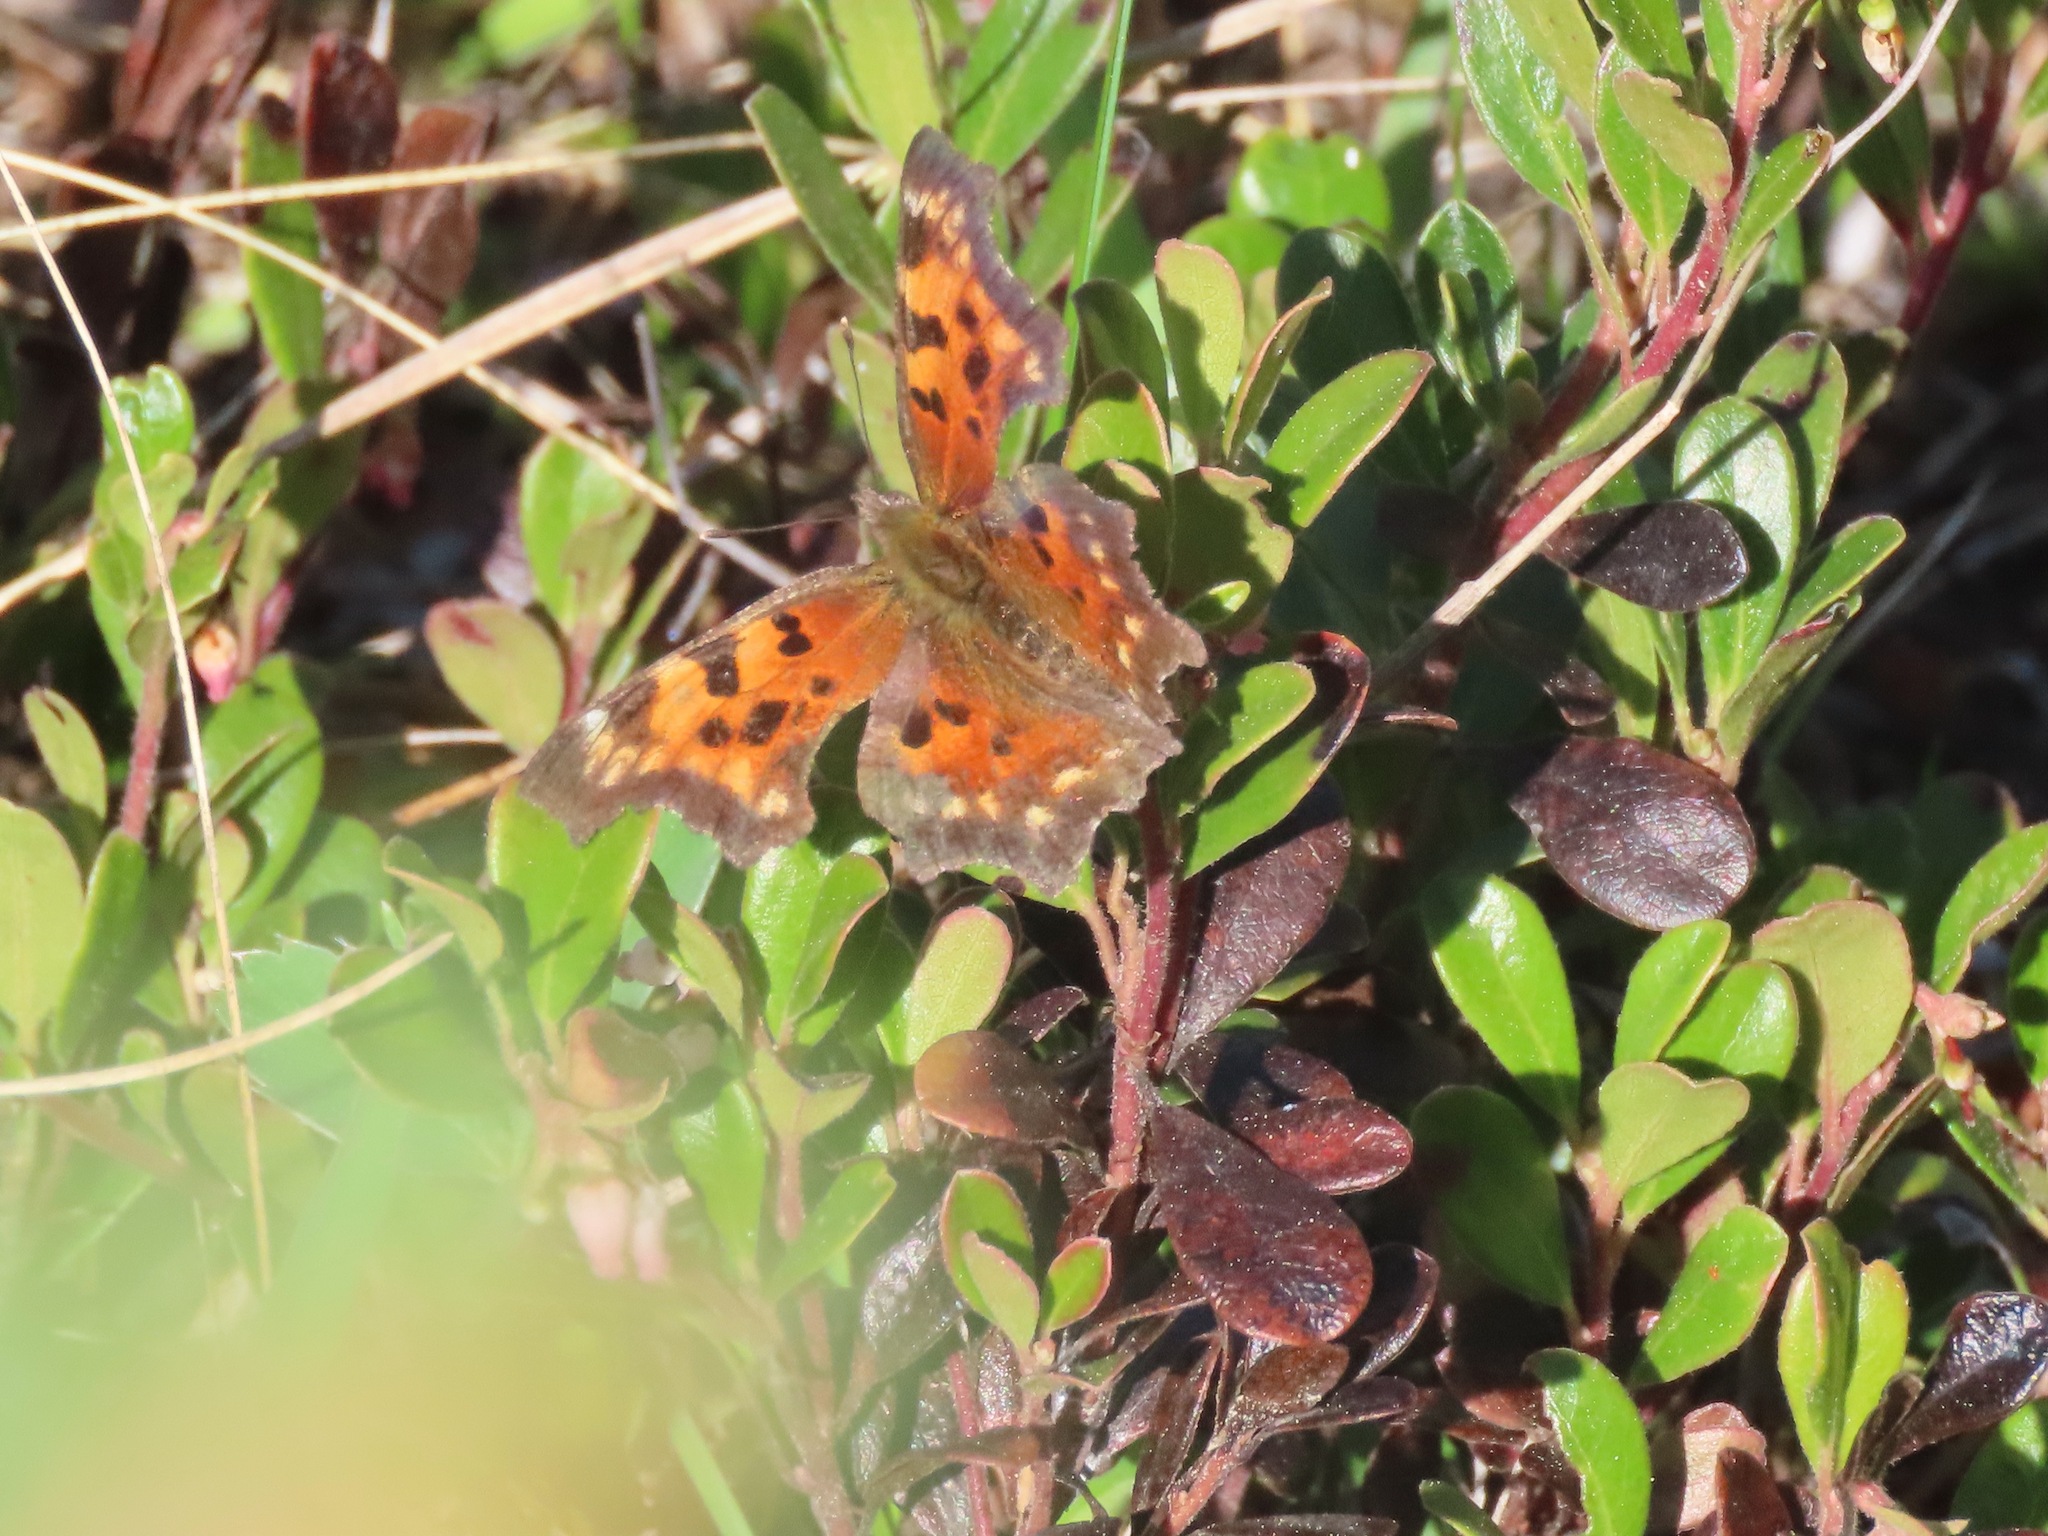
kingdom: Animalia
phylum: Arthropoda
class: Insecta
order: Lepidoptera
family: Nymphalidae
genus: Polygonia
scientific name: Polygonia faunus
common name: Green comma
